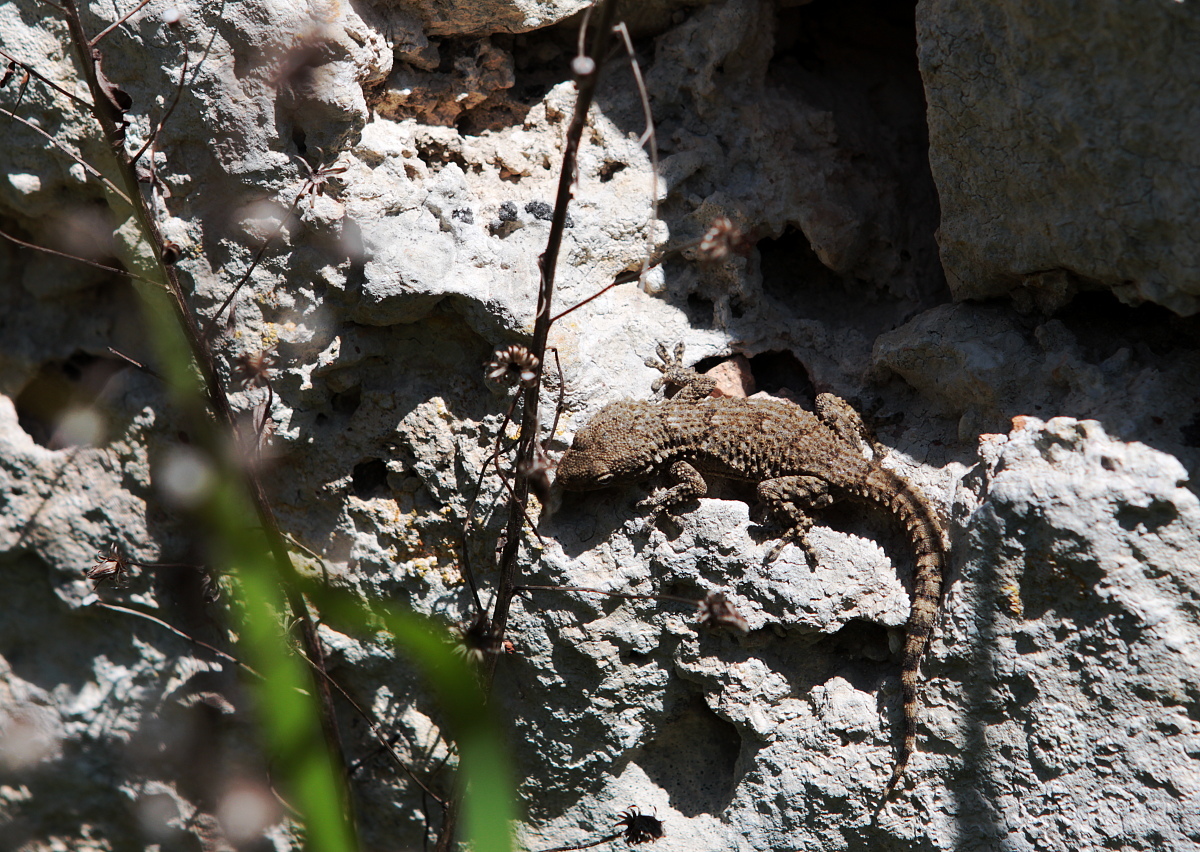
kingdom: Animalia
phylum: Chordata
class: Squamata
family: Phyllodactylidae
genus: Tarentola
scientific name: Tarentola mauritanica
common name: Moorish gecko
